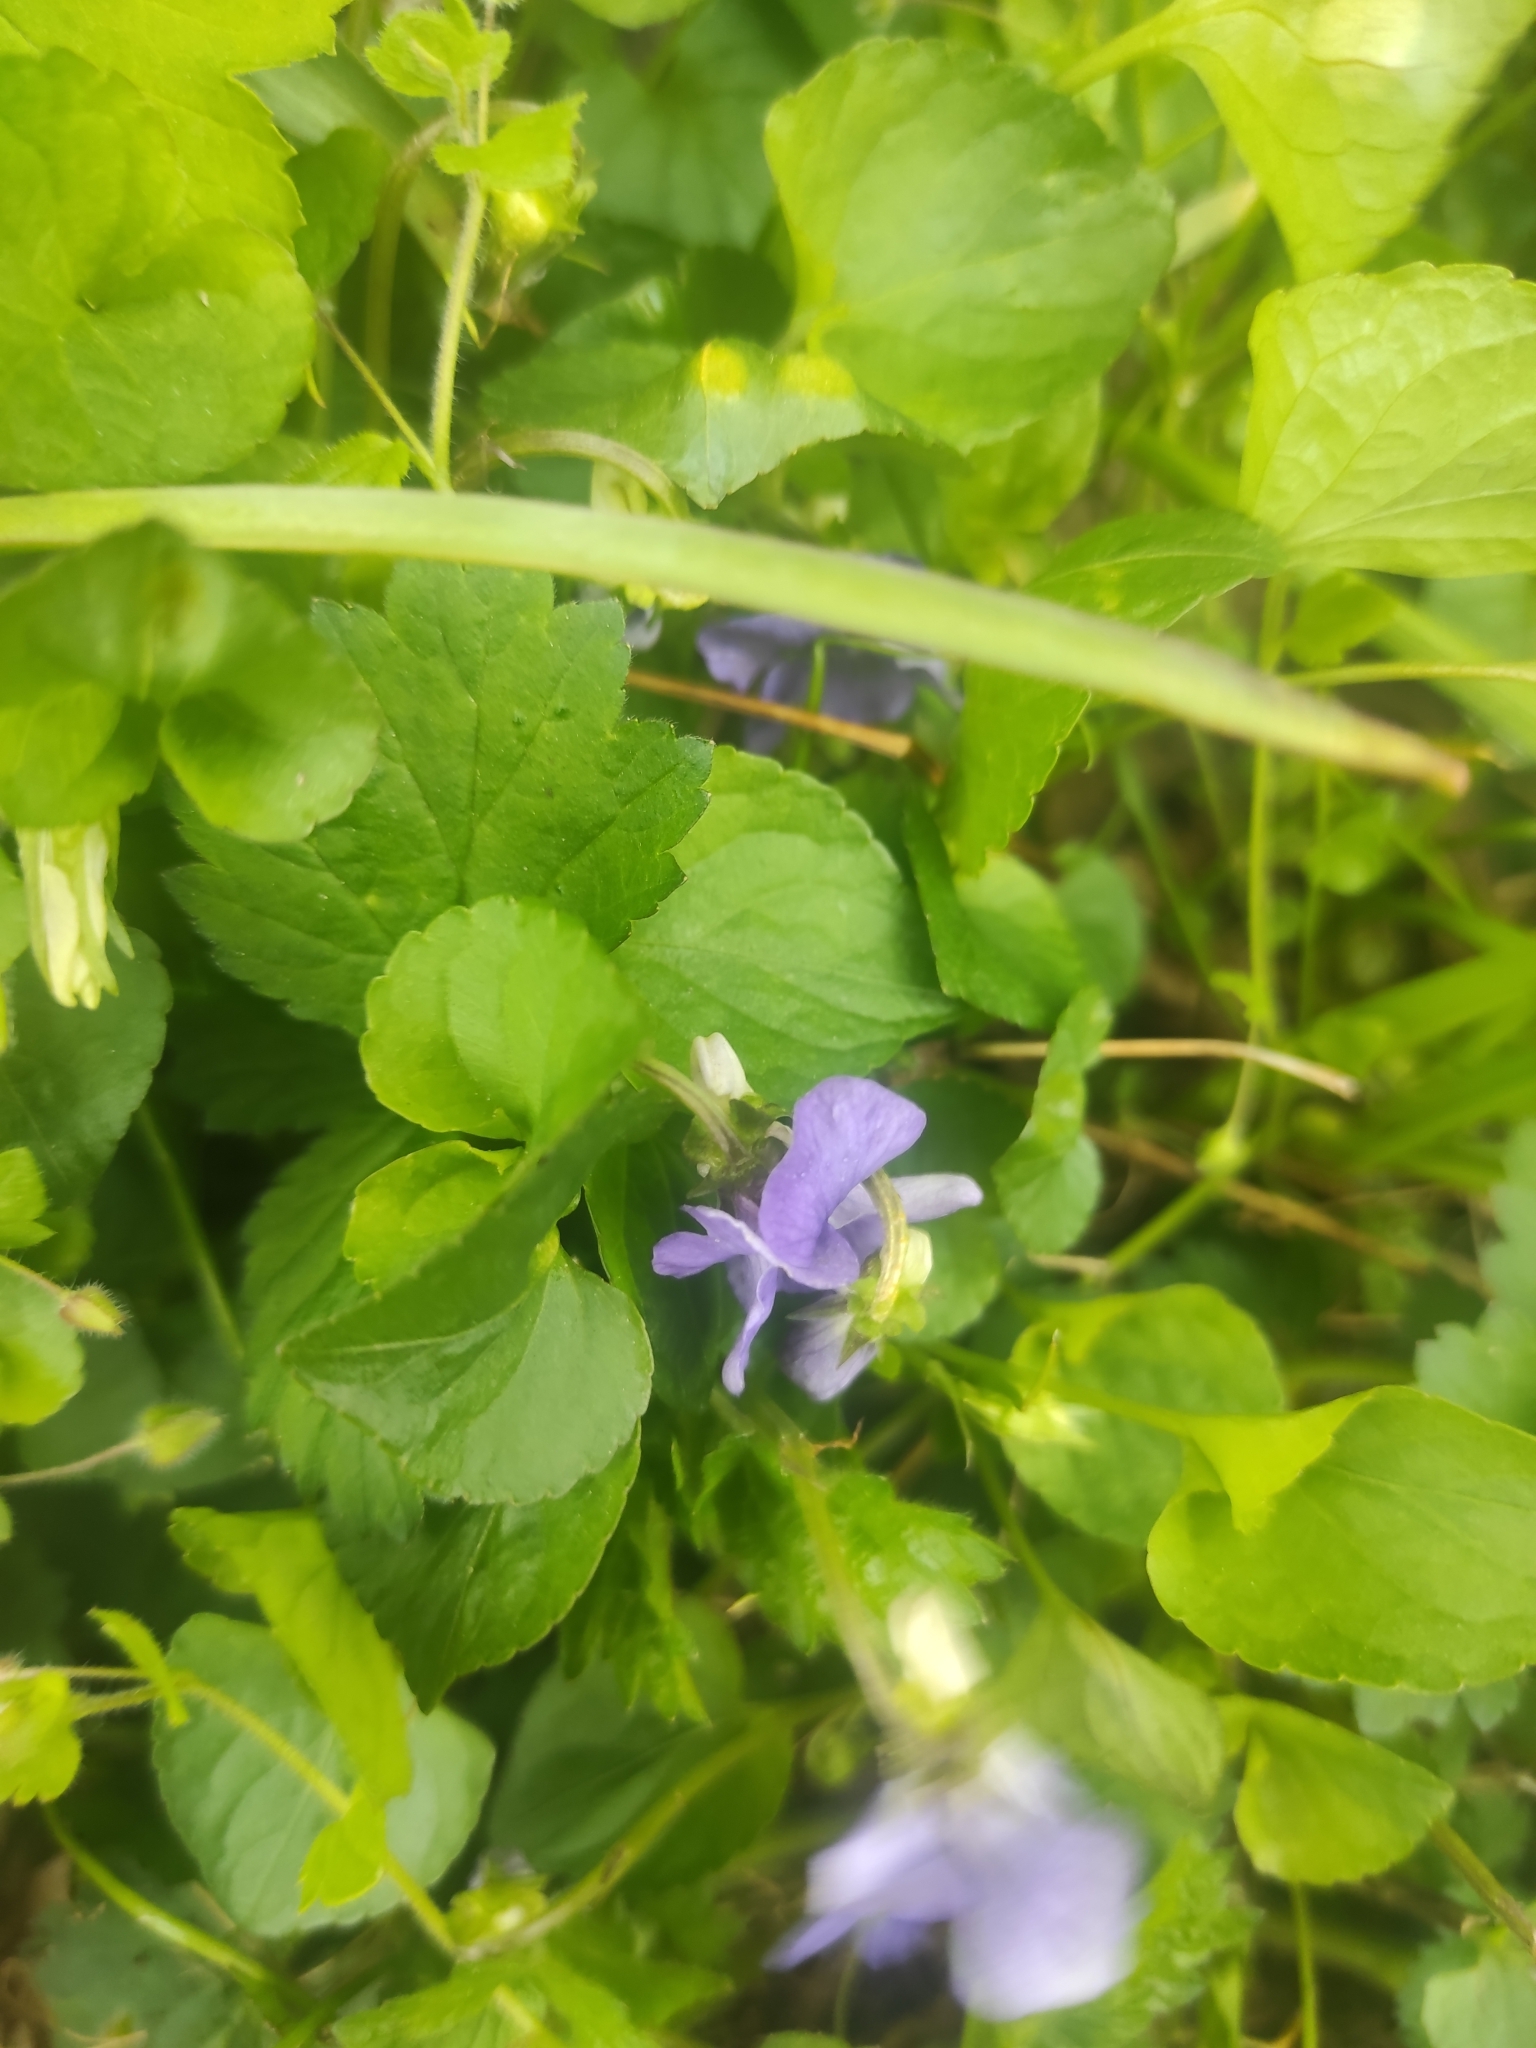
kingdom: Plantae
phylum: Tracheophyta
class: Magnoliopsida
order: Malpighiales
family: Violaceae
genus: Viola
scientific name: Viola riviniana
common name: Common dog-violet
